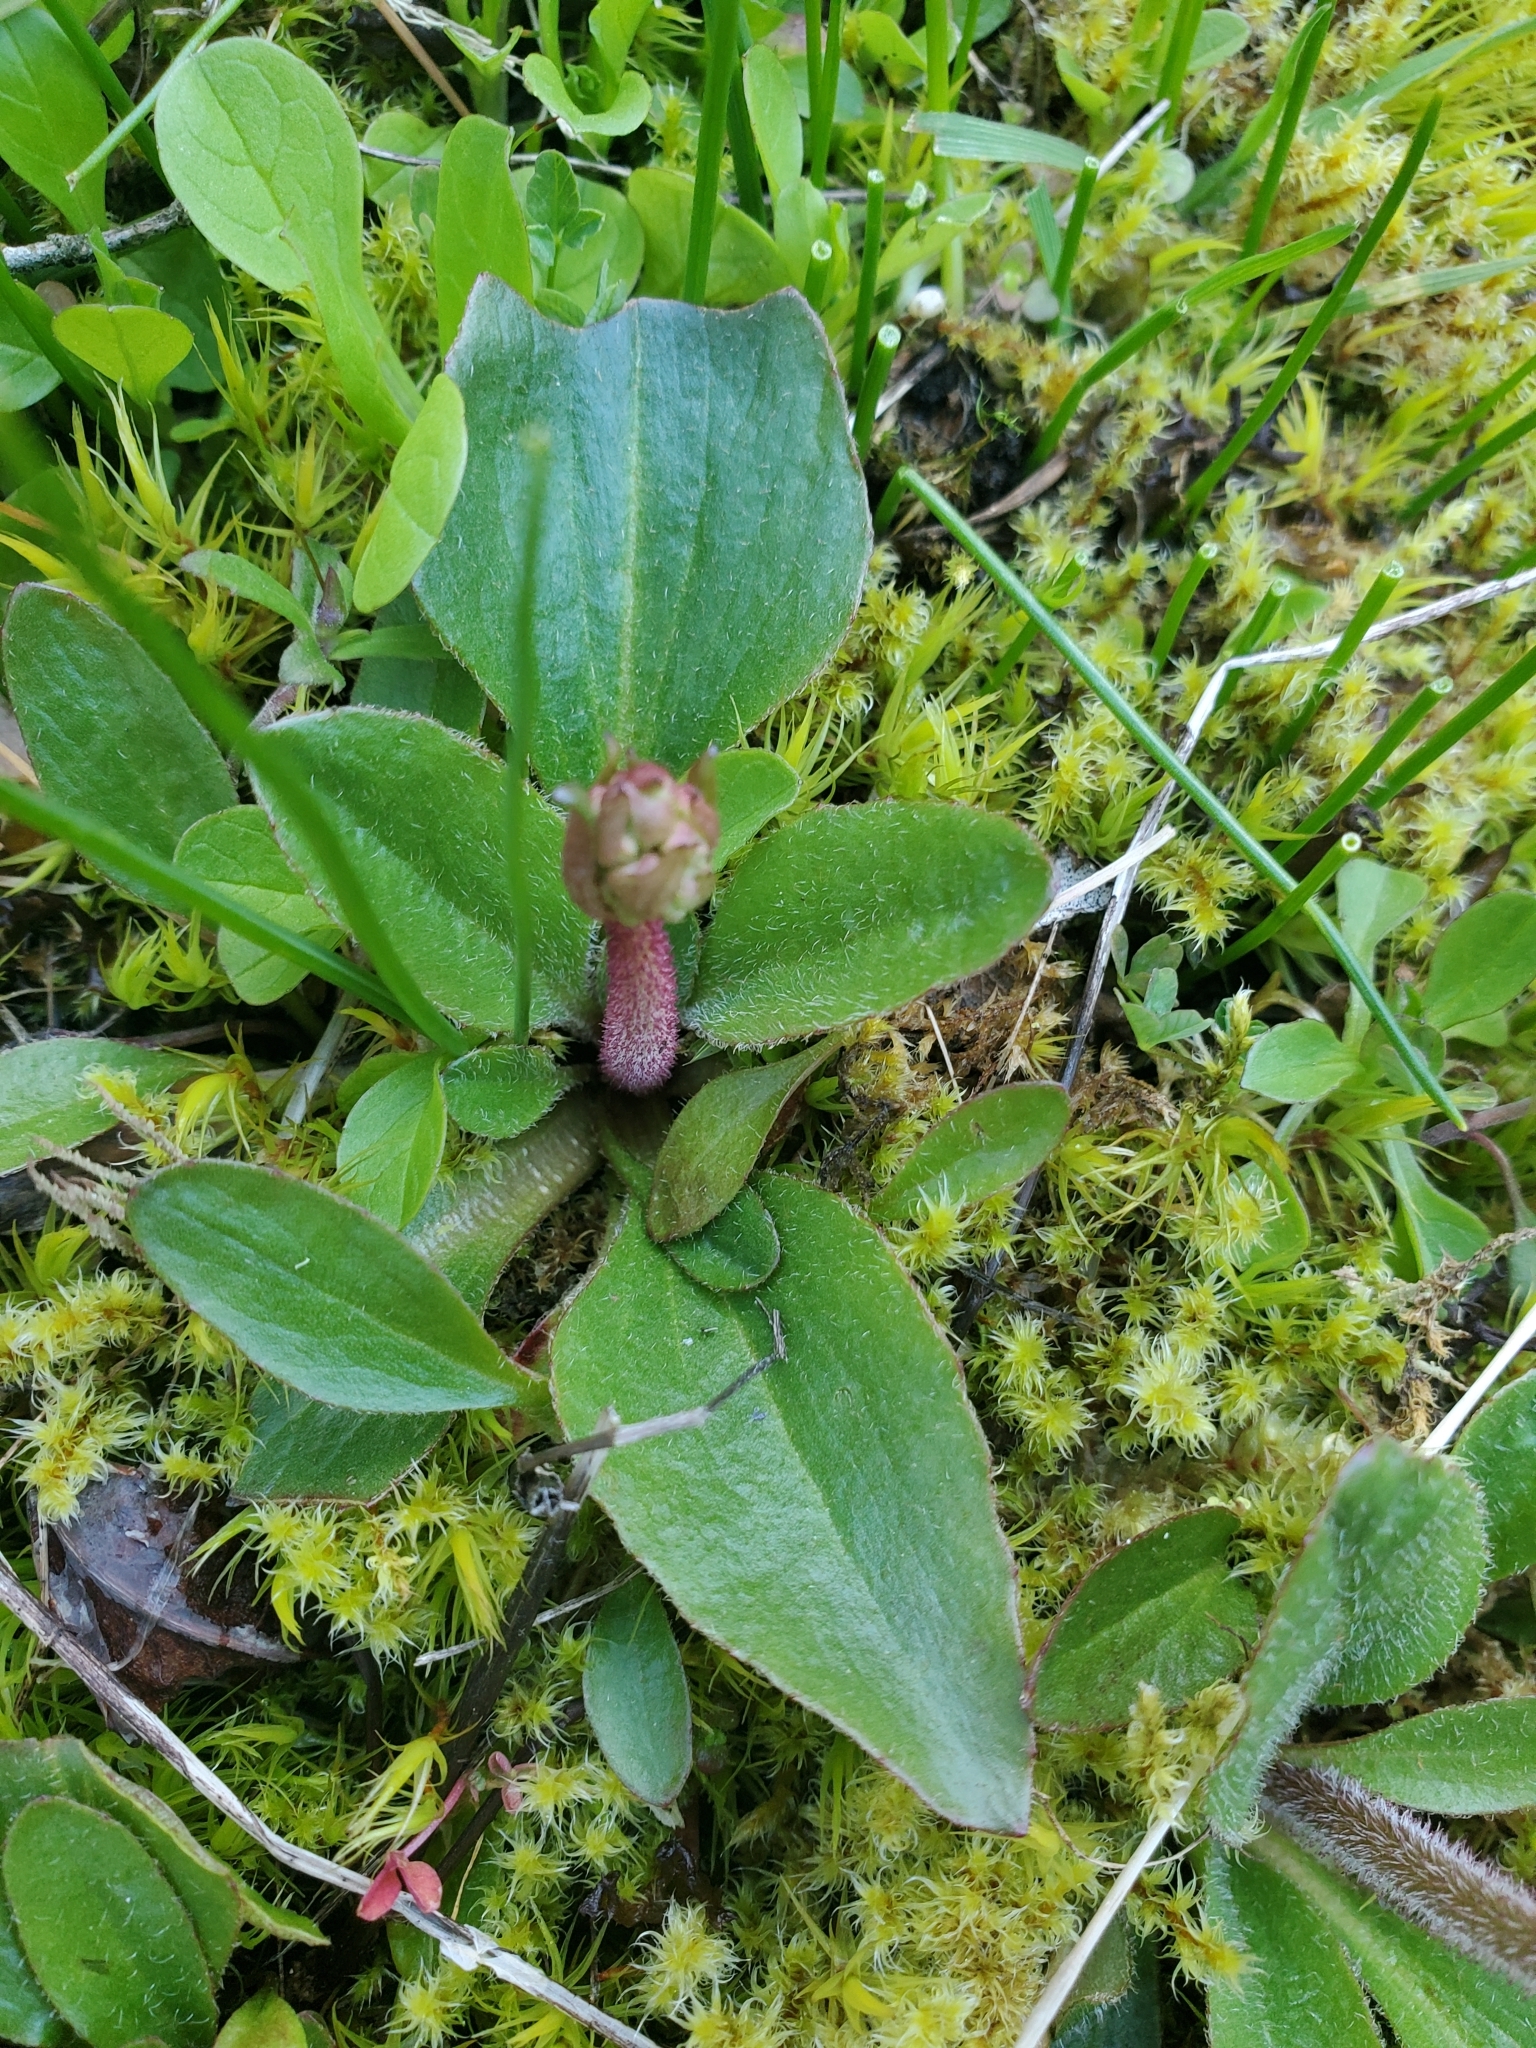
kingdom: Plantae
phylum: Tracheophyta
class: Magnoliopsida
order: Saxifragales
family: Saxifragaceae
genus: Micranthes
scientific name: Micranthes integrifolia
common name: Wholeleaf saxifrage
